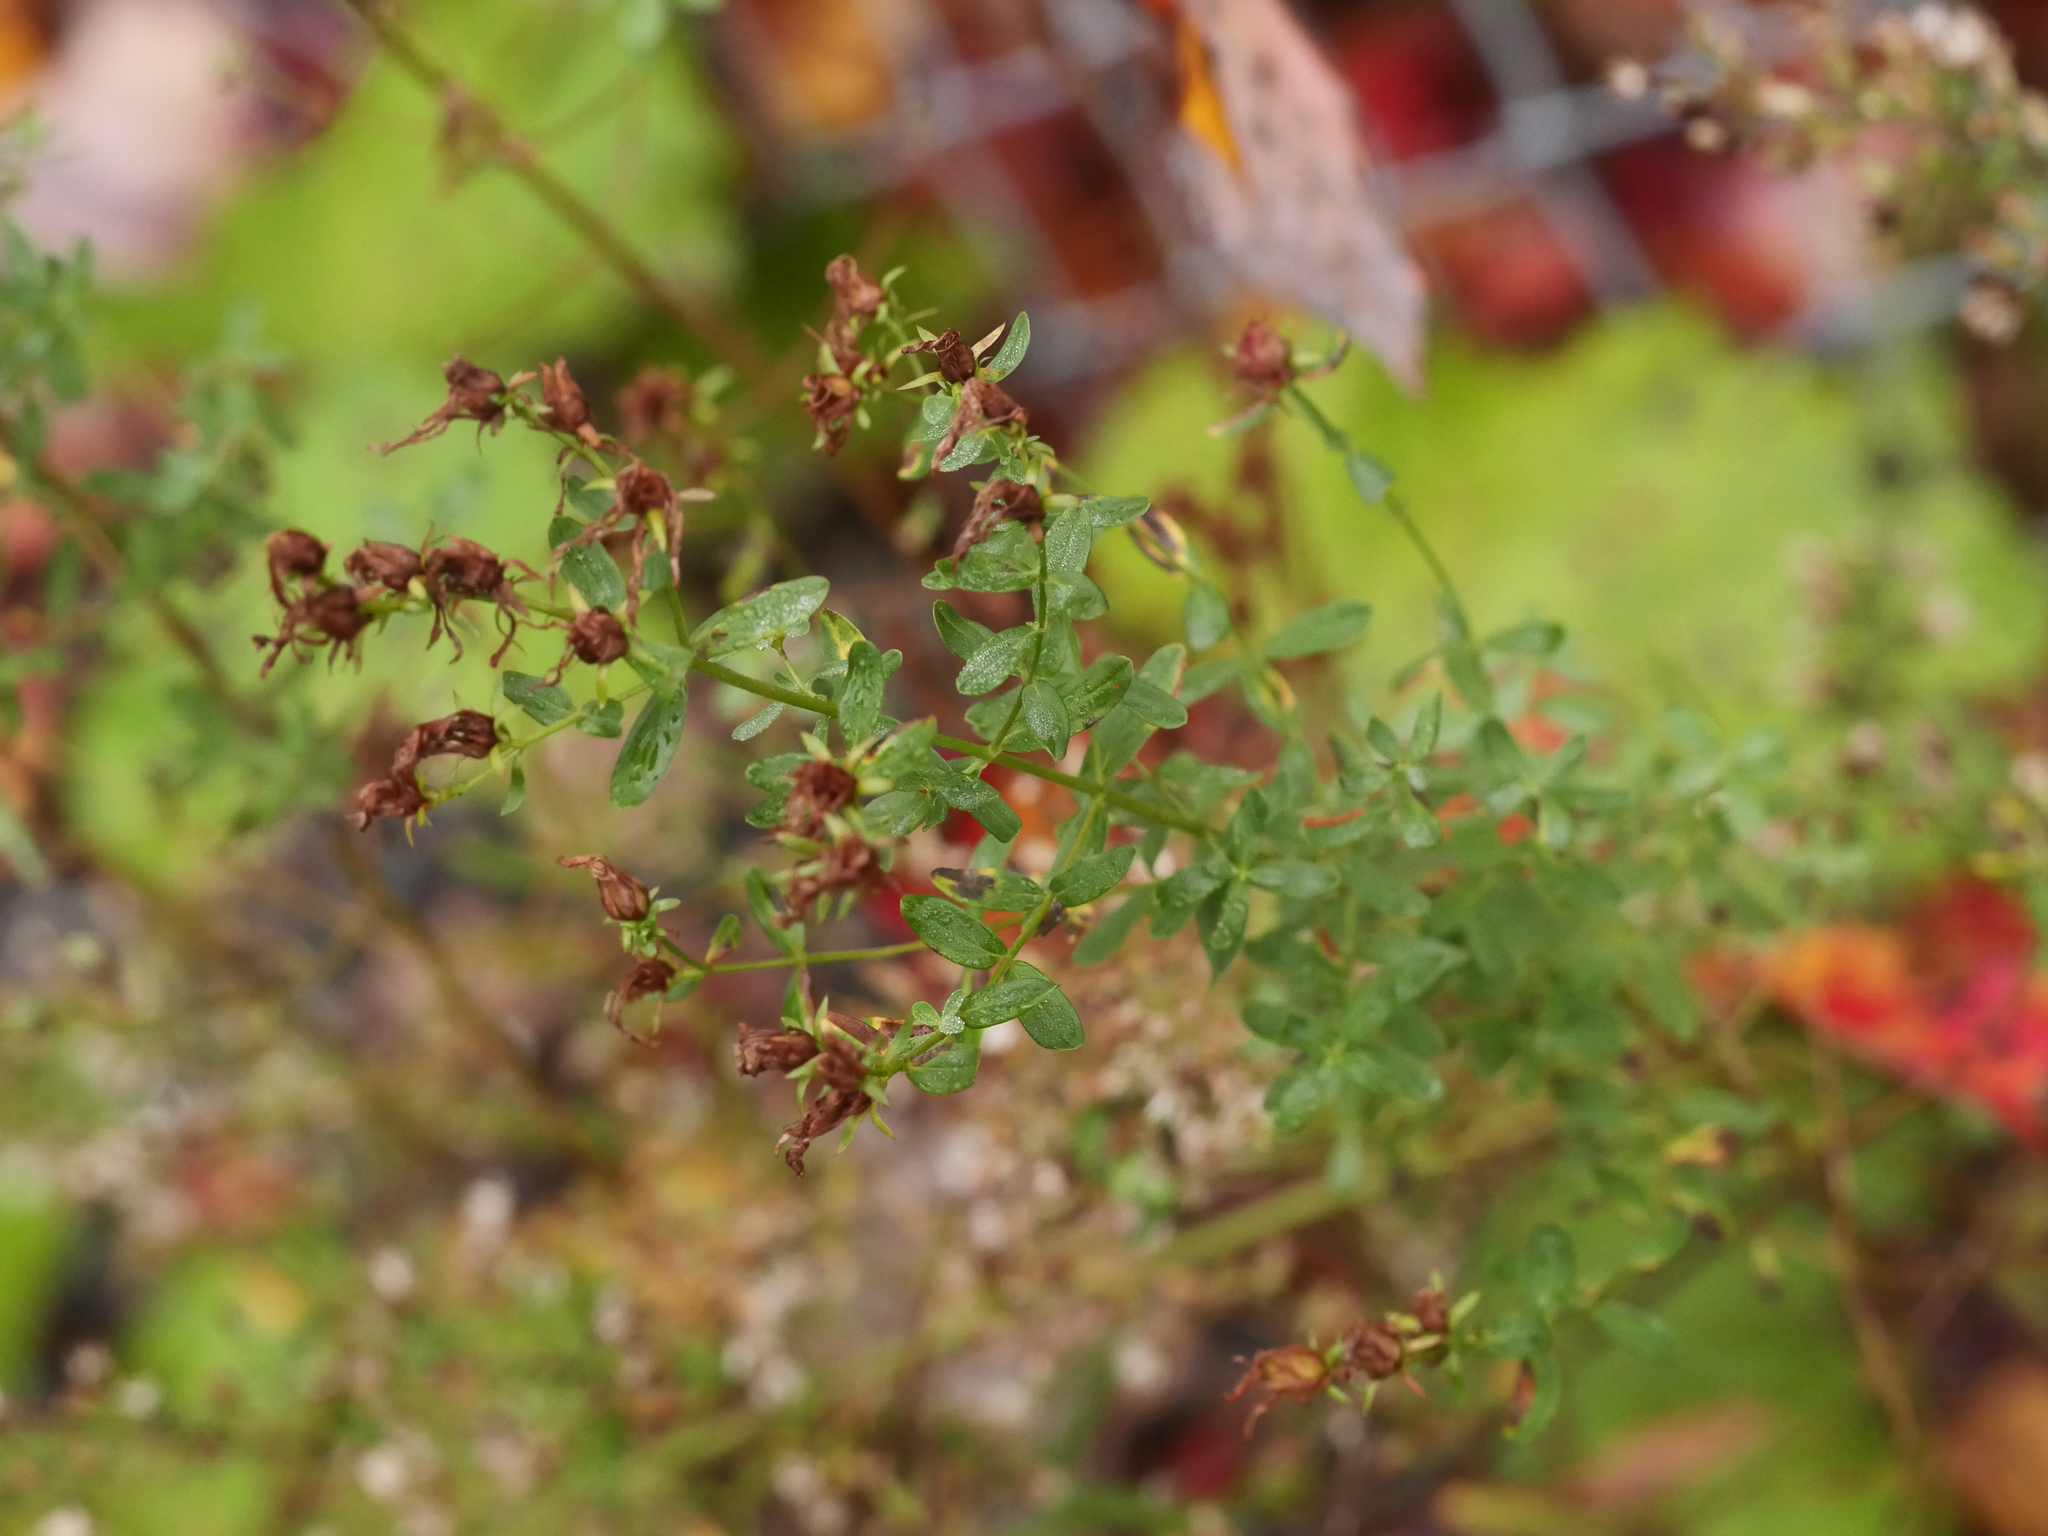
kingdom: Plantae
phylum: Tracheophyta
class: Magnoliopsida
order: Malpighiales
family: Hypericaceae
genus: Hypericum
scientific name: Hypericum perforatum
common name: Common st. johnswort
